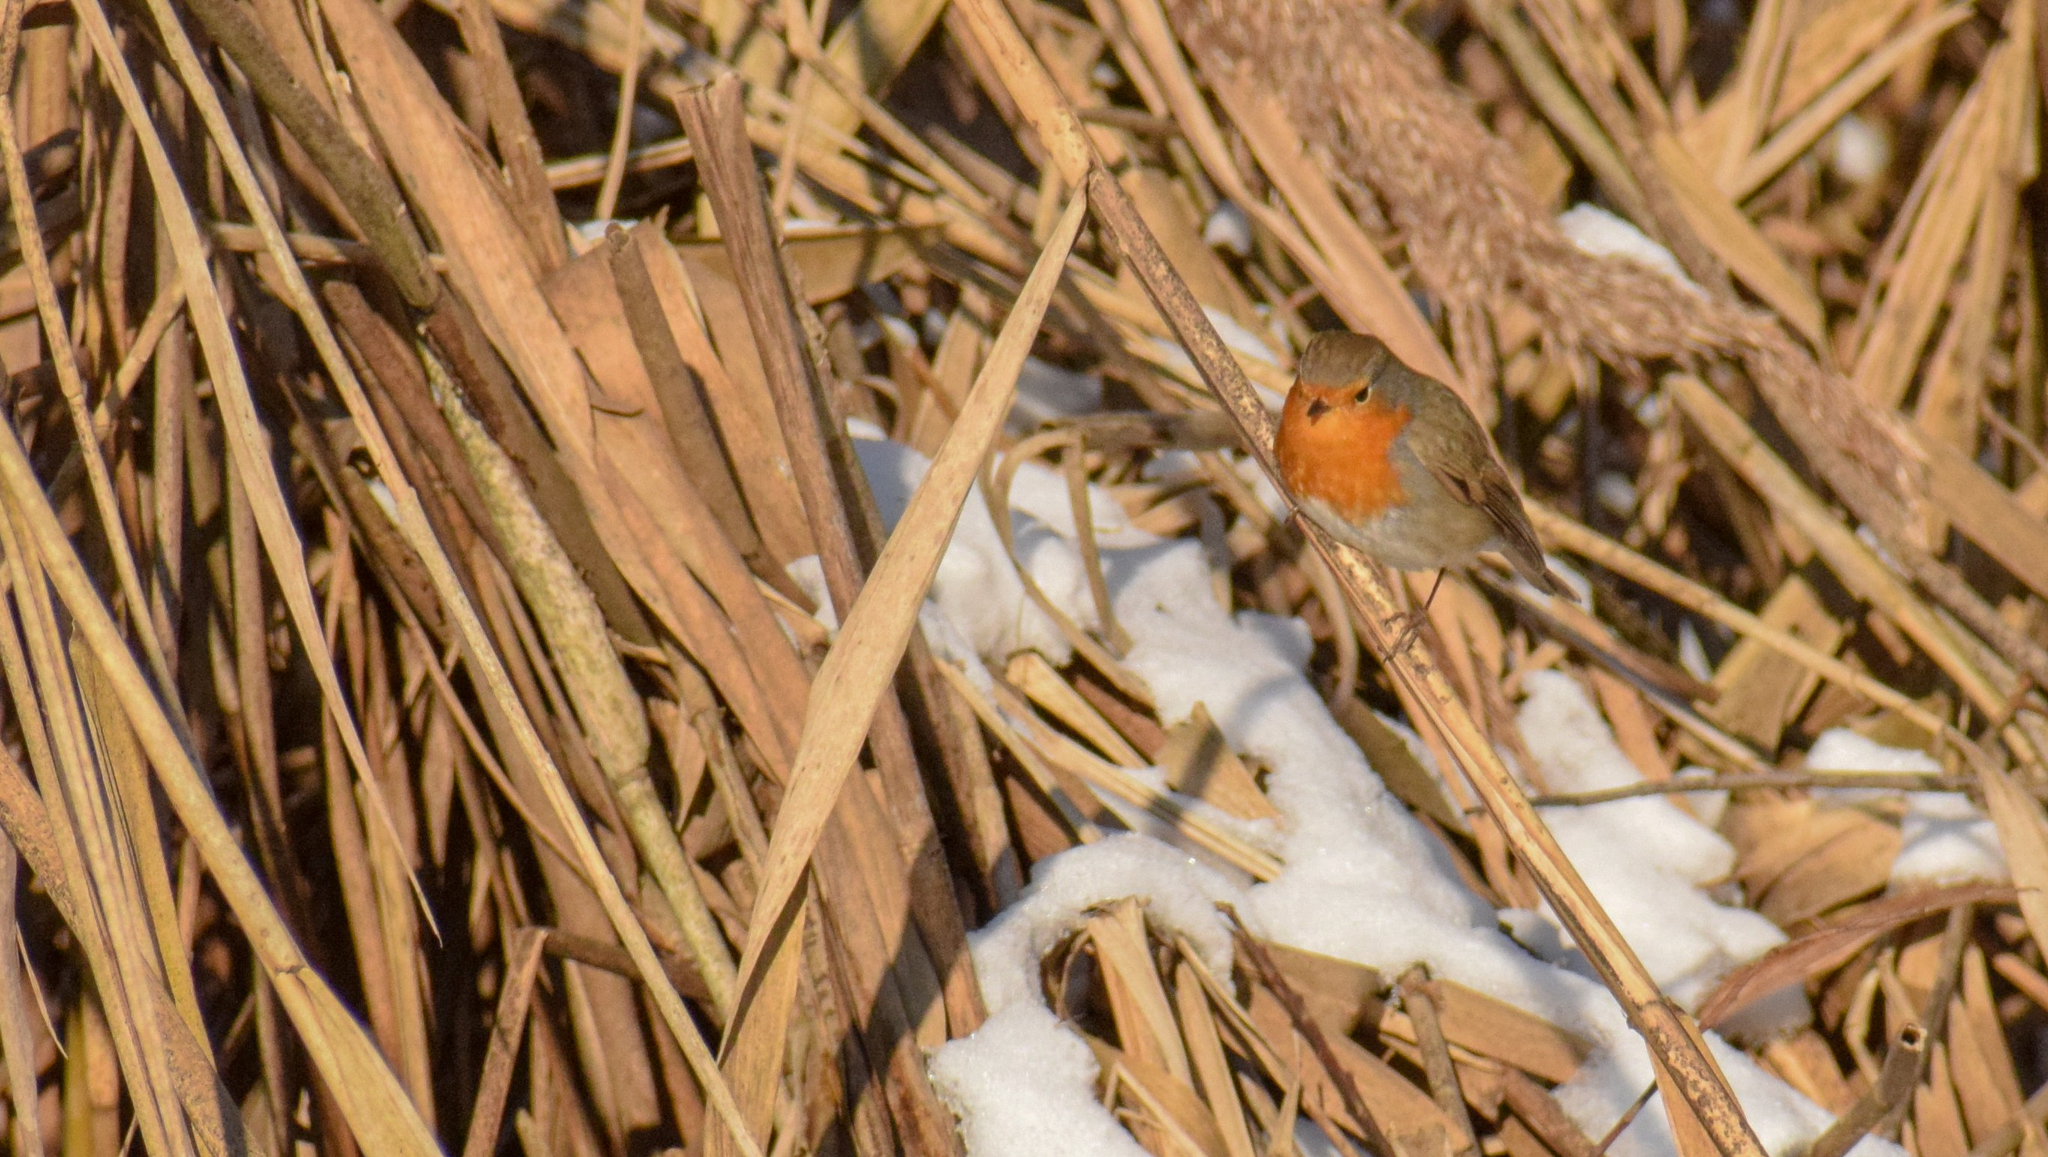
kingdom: Animalia
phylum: Chordata
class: Aves
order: Passeriformes
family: Muscicapidae
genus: Erithacus
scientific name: Erithacus rubecula
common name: European robin
